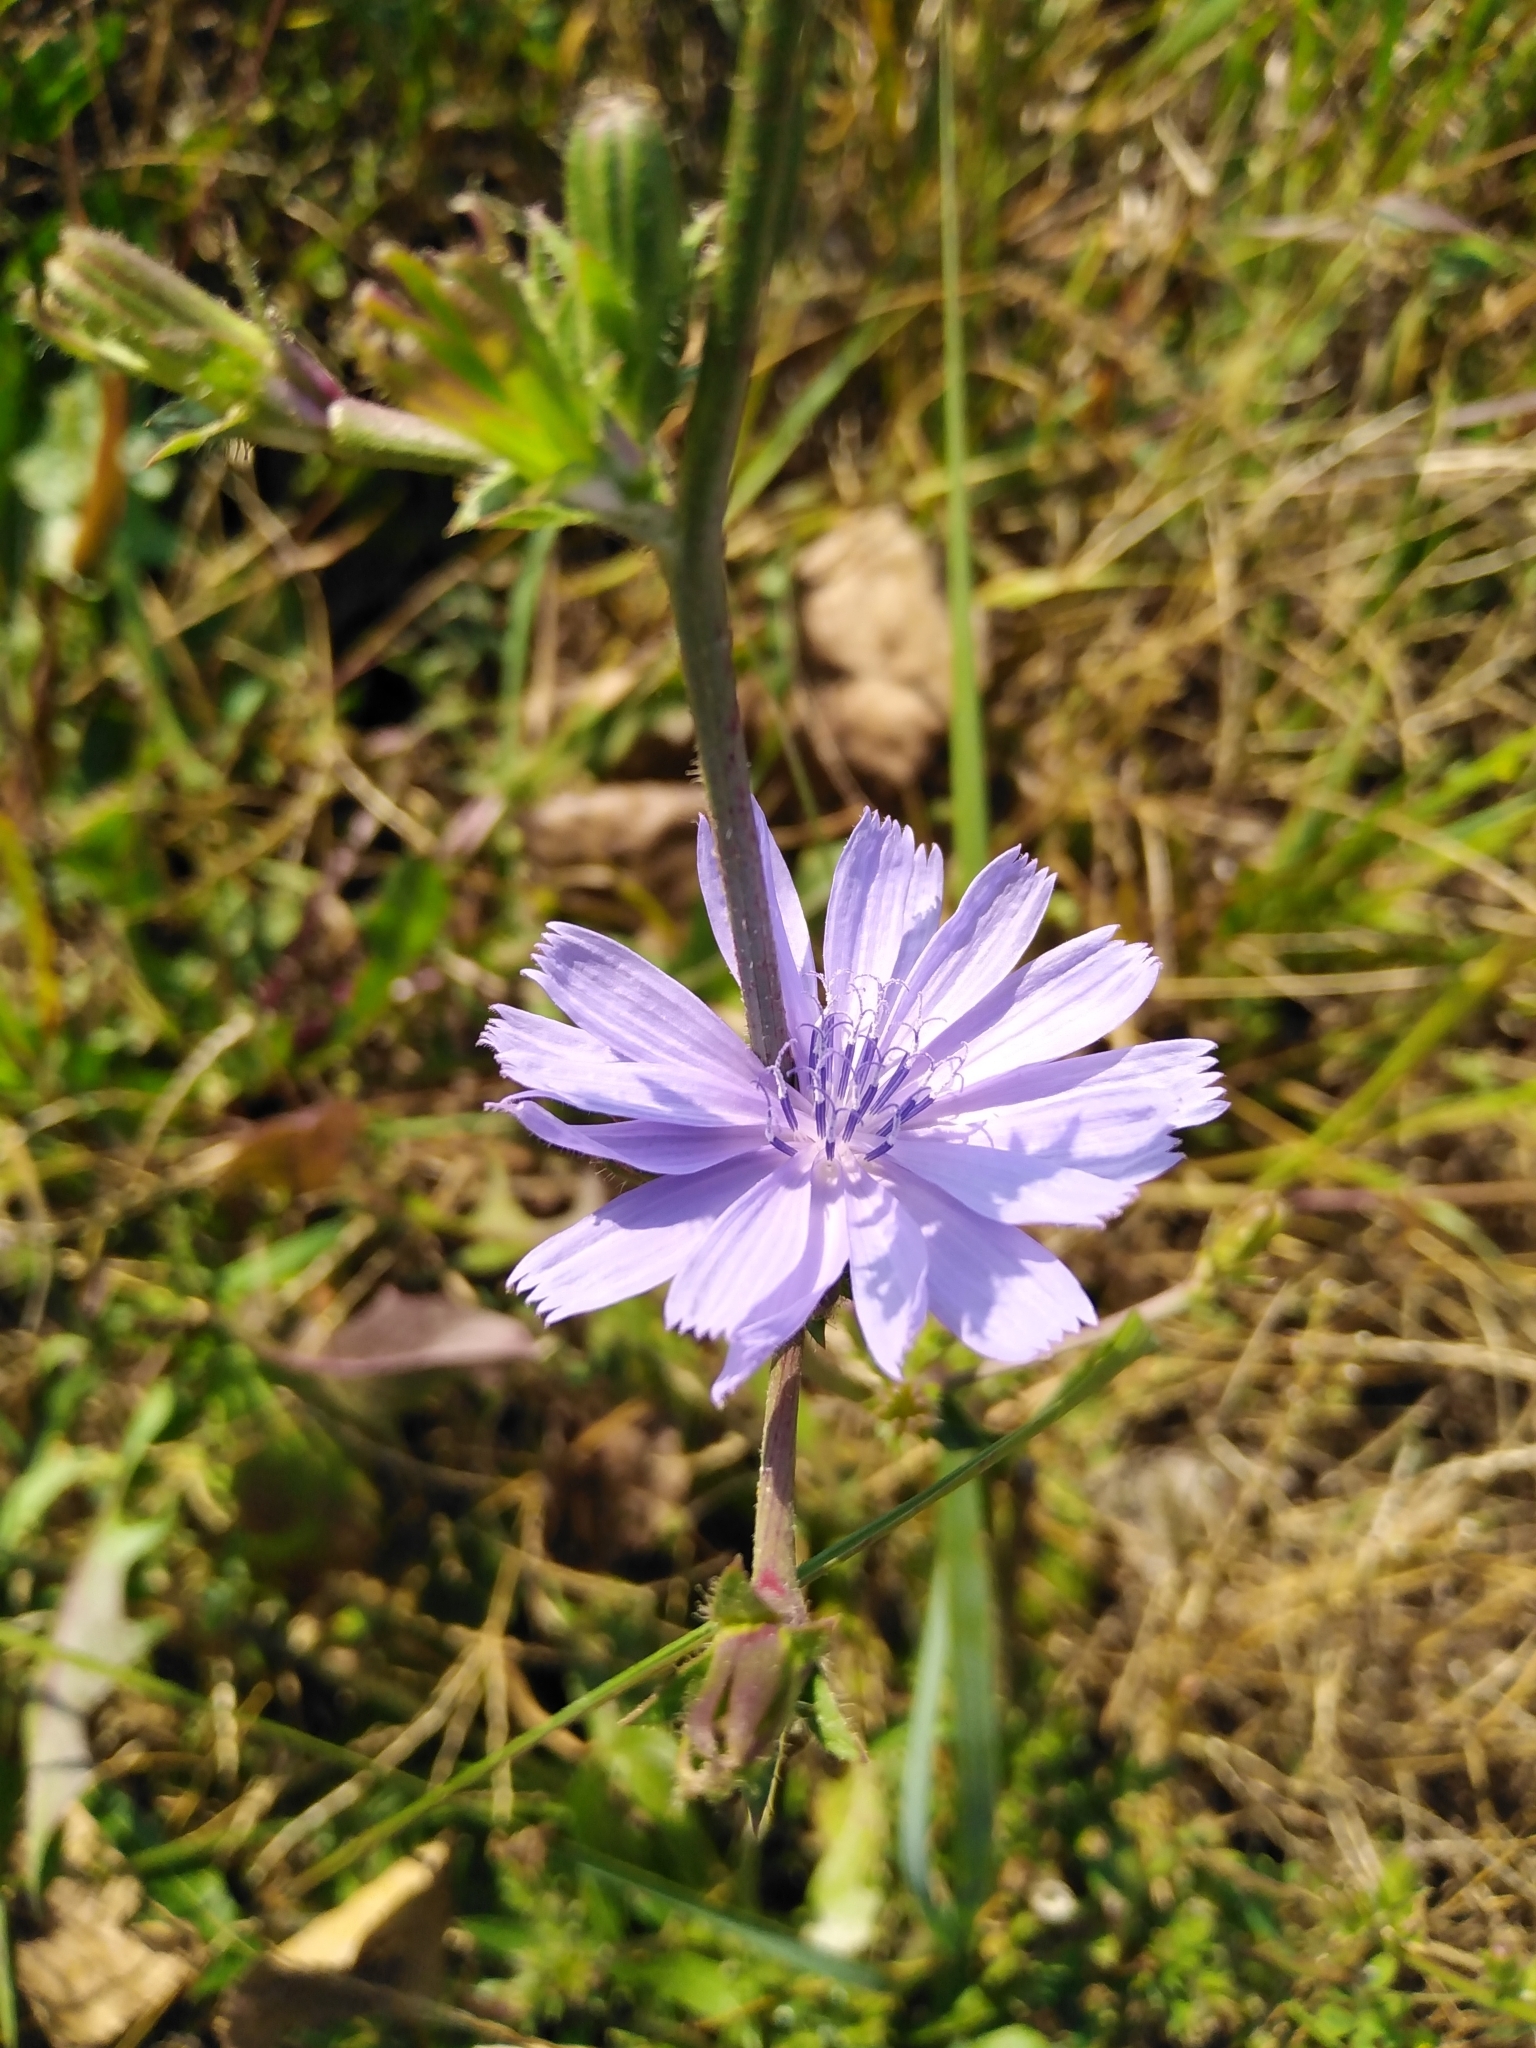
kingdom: Plantae
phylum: Tracheophyta
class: Magnoliopsida
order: Asterales
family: Asteraceae
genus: Cichorium
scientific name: Cichorium intybus
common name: Chicory
